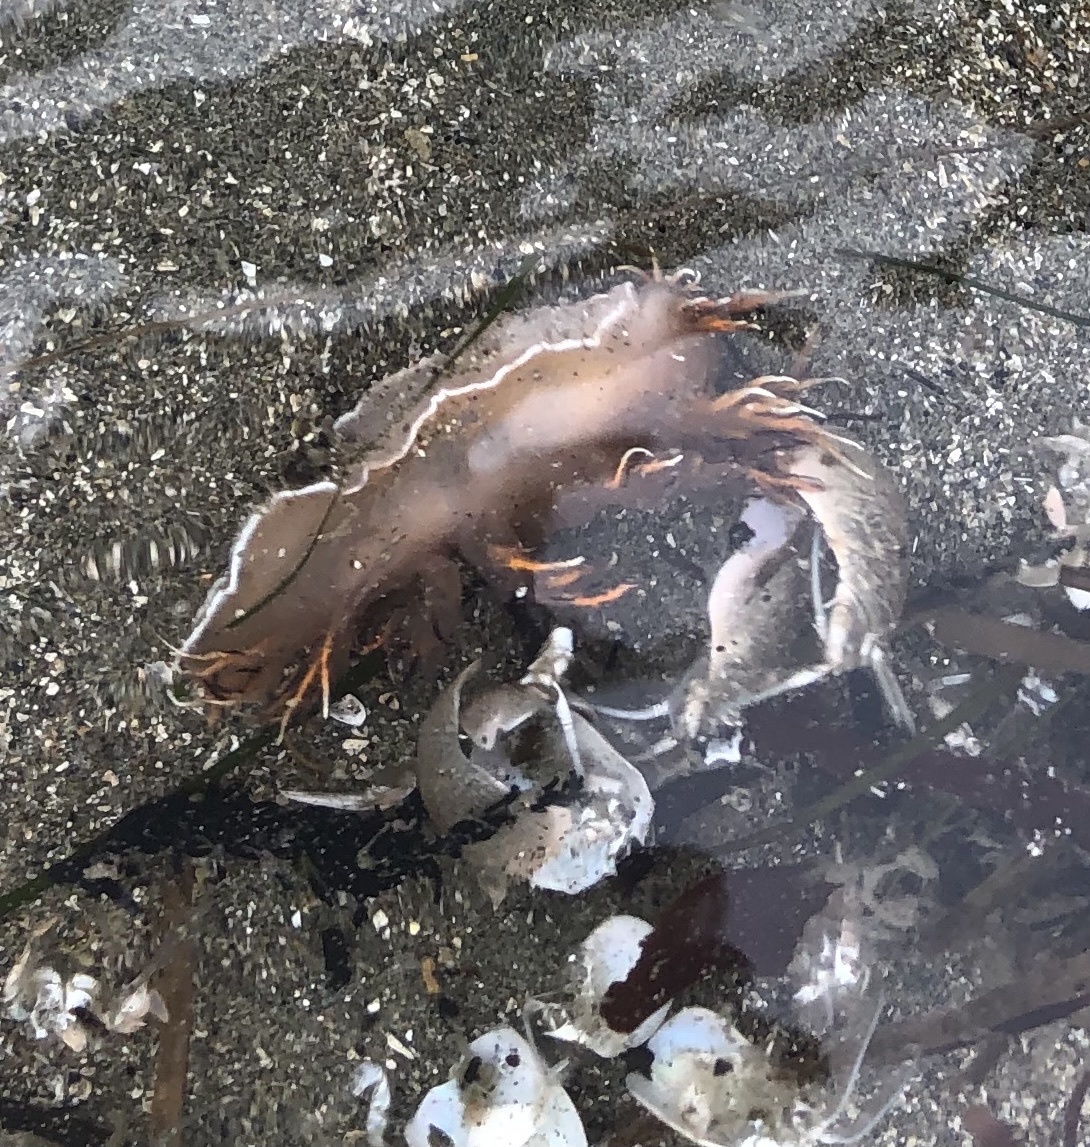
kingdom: Animalia
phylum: Mollusca
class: Gastropoda
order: Nudibranchia
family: Dendronotidae
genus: Dendronotus
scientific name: Dendronotus iris
